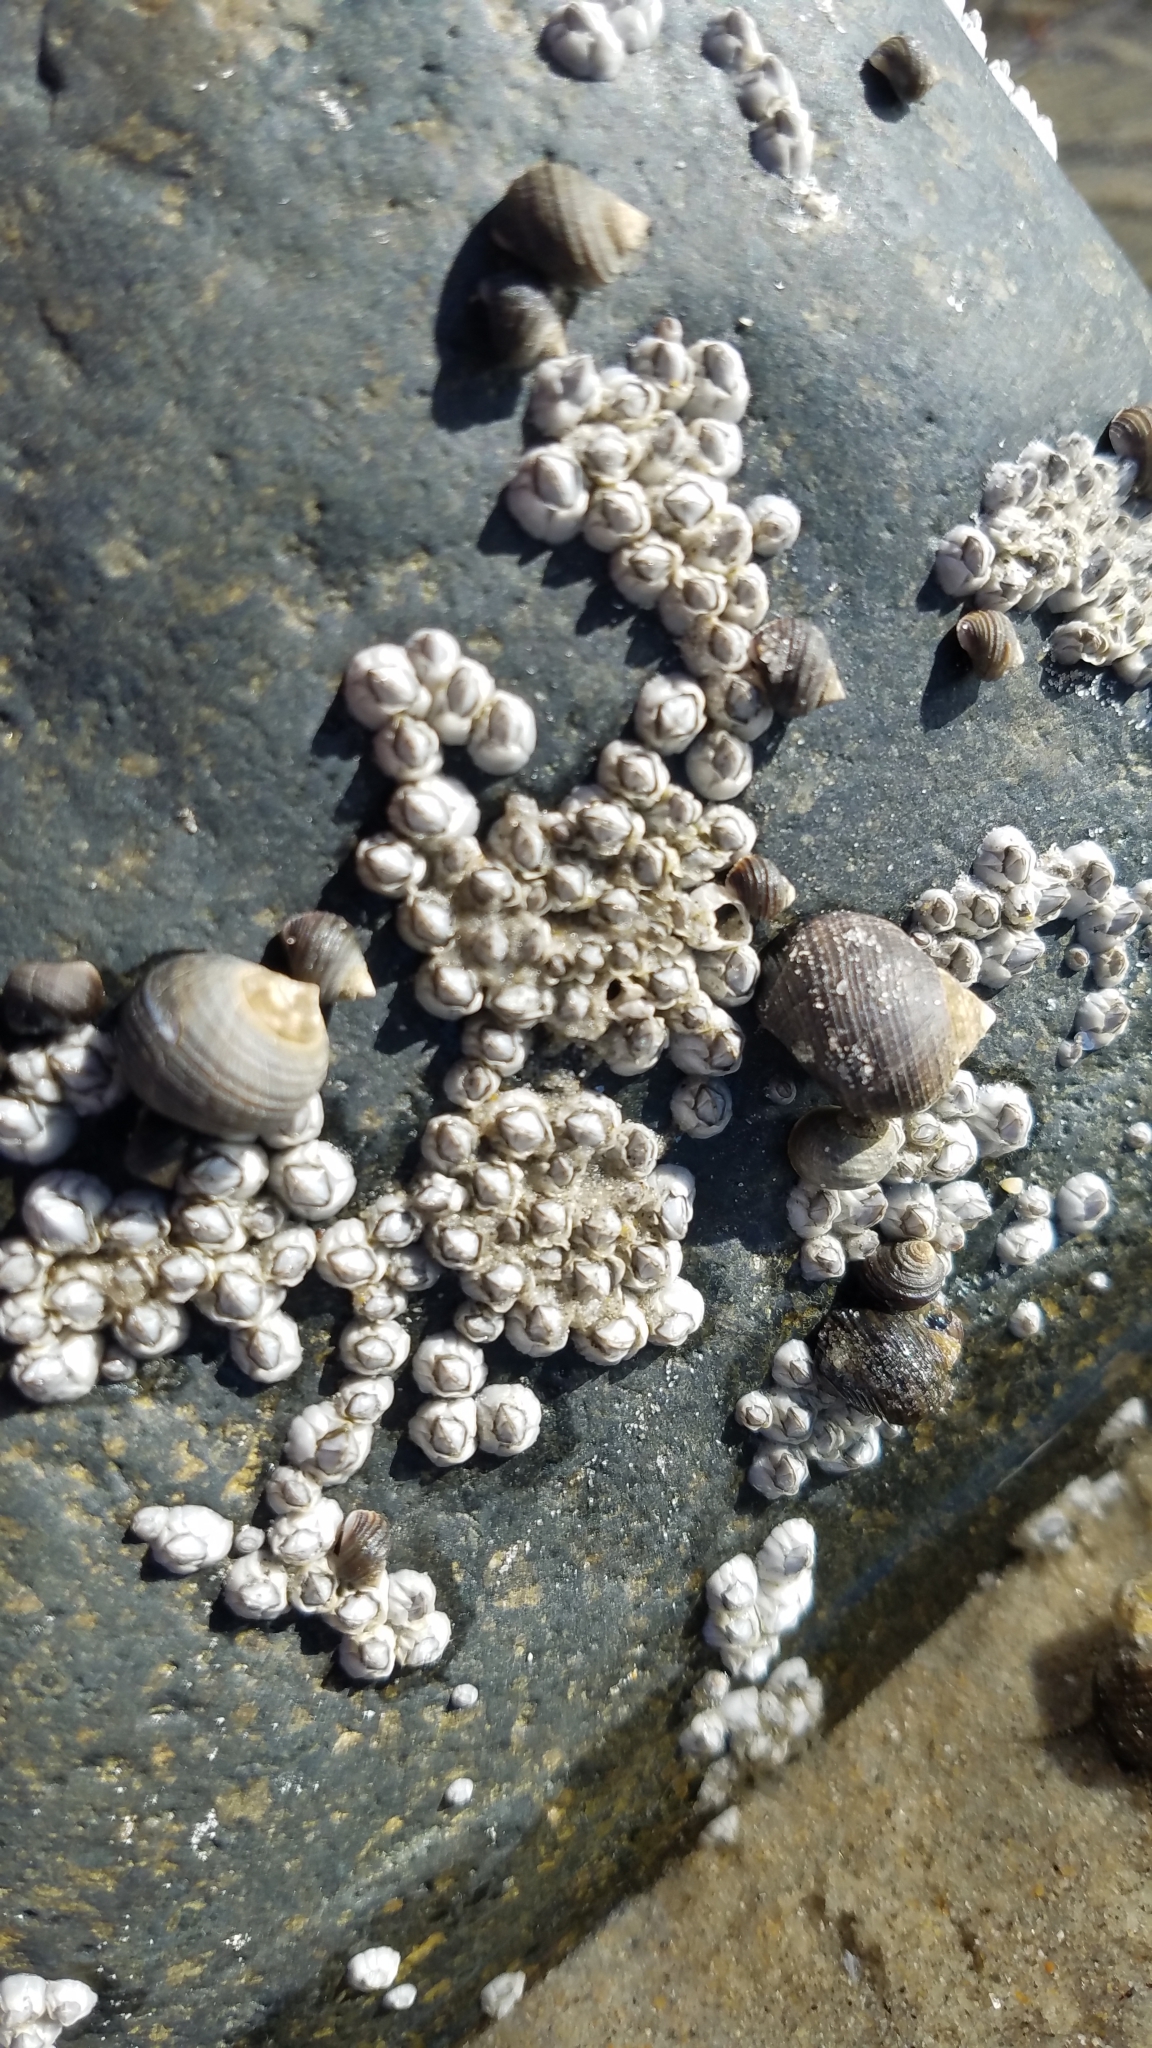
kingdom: Animalia
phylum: Arthropoda
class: Maxillopoda
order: Sessilia
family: Archaeobalanidae
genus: Semibalanus
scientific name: Semibalanus balanoides
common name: Acorn barnacle
